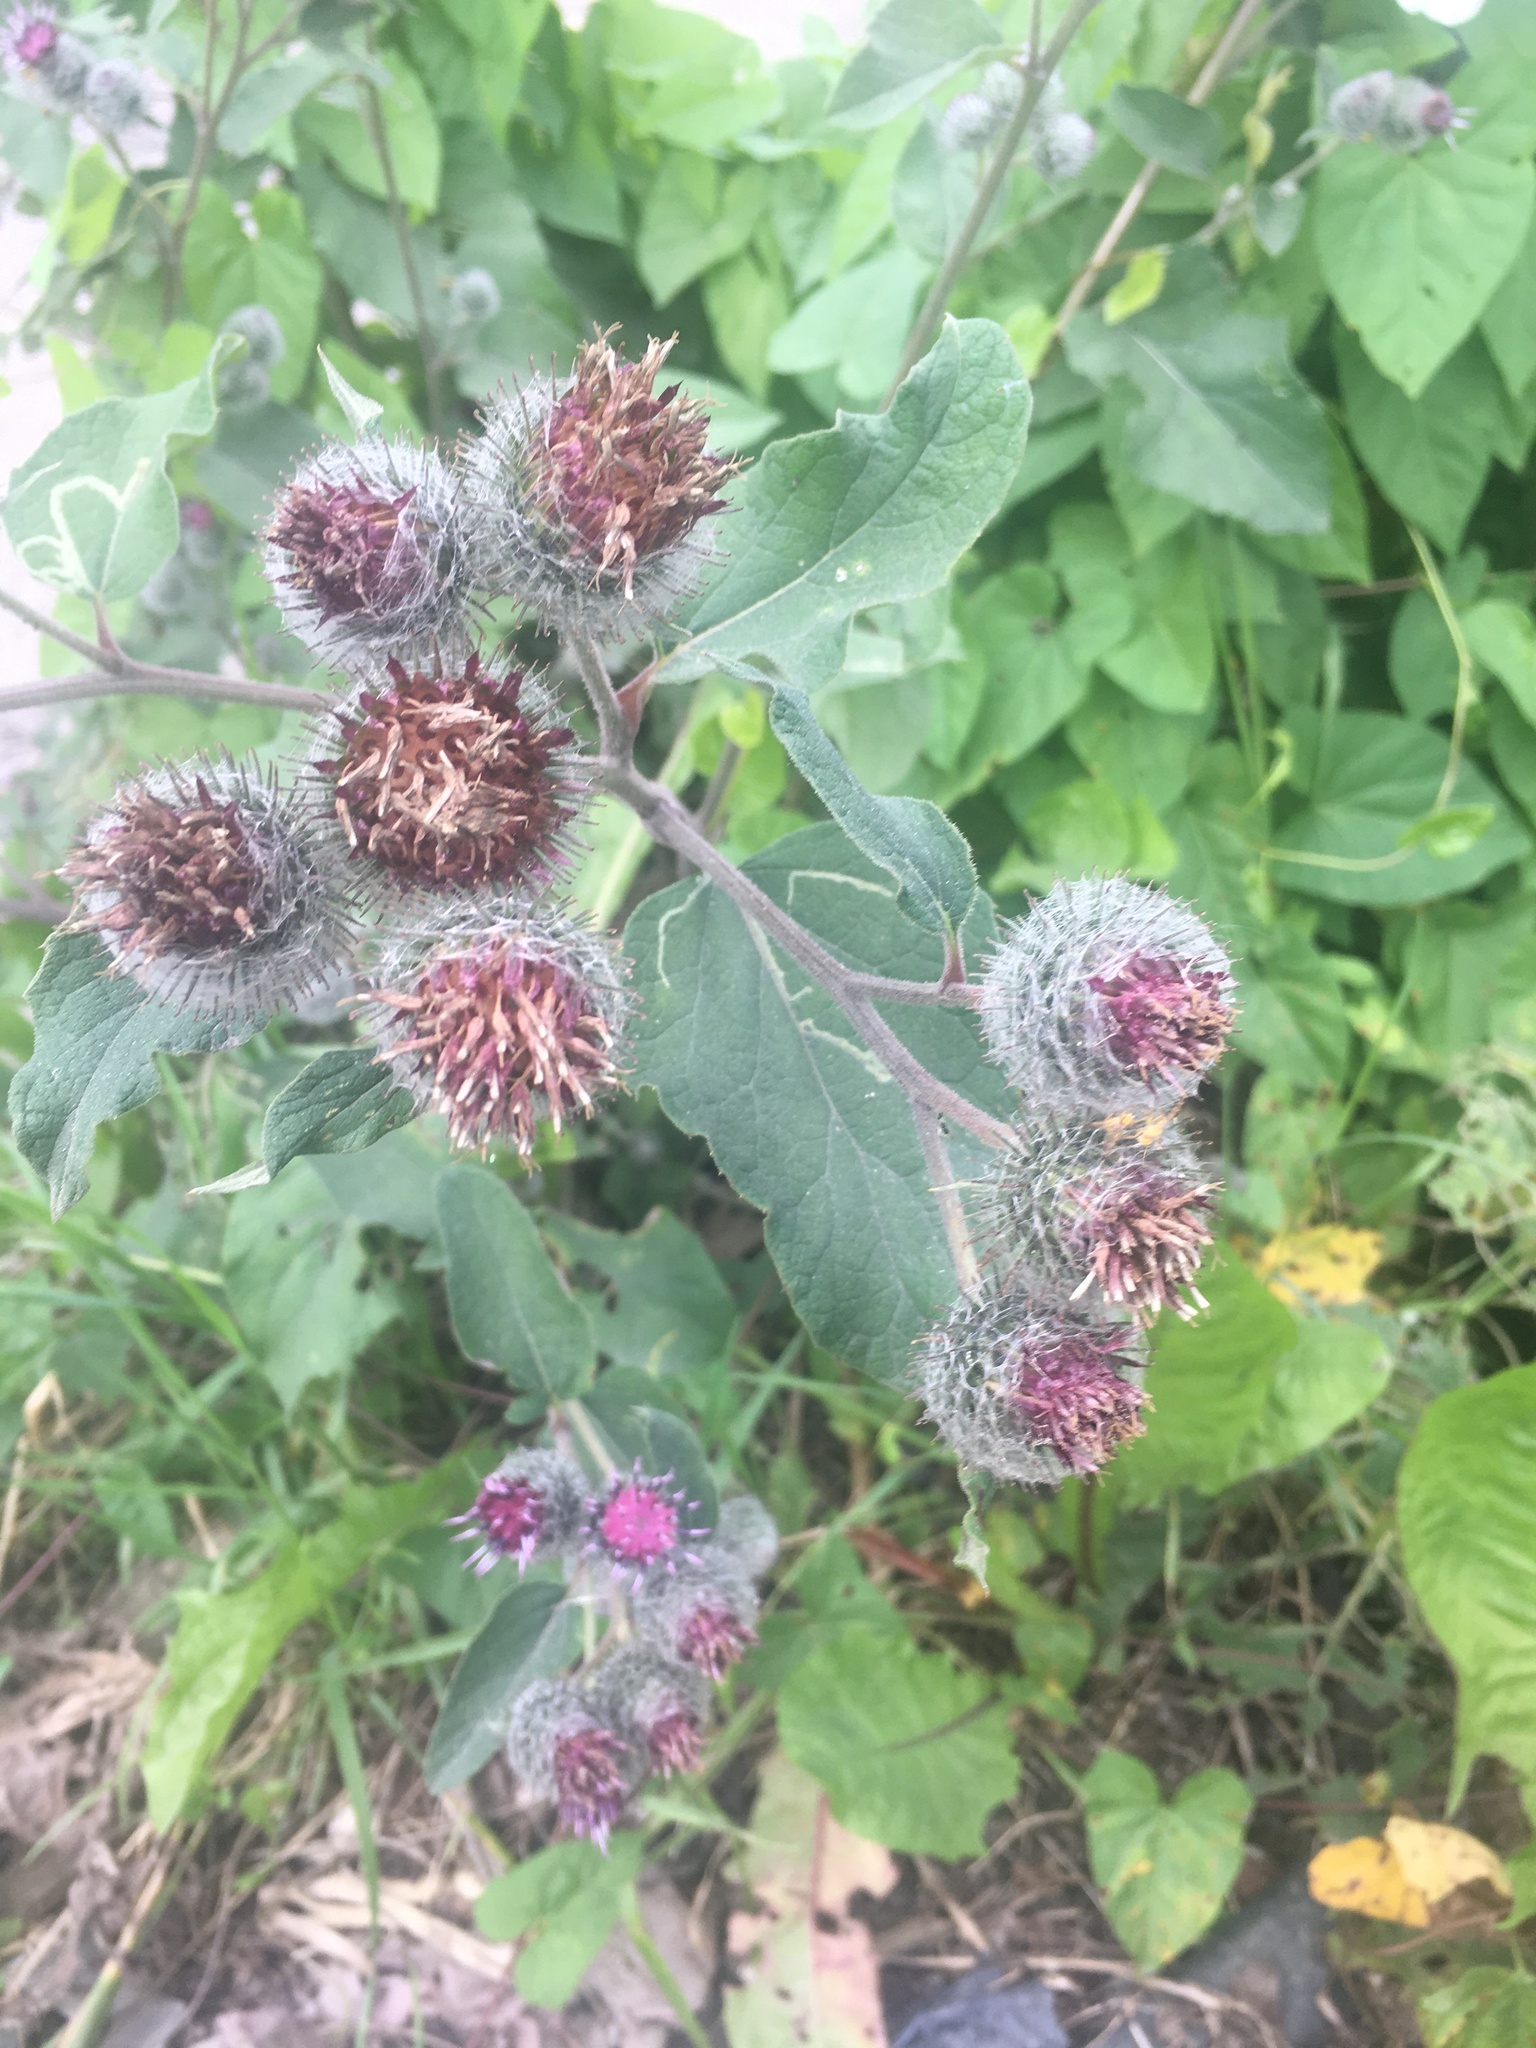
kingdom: Plantae
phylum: Tracheophyta
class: Magnoliopsida
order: Asterales
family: Asteraceae
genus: Arctium
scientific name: Arctium tomentosum
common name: Woolly burdock
